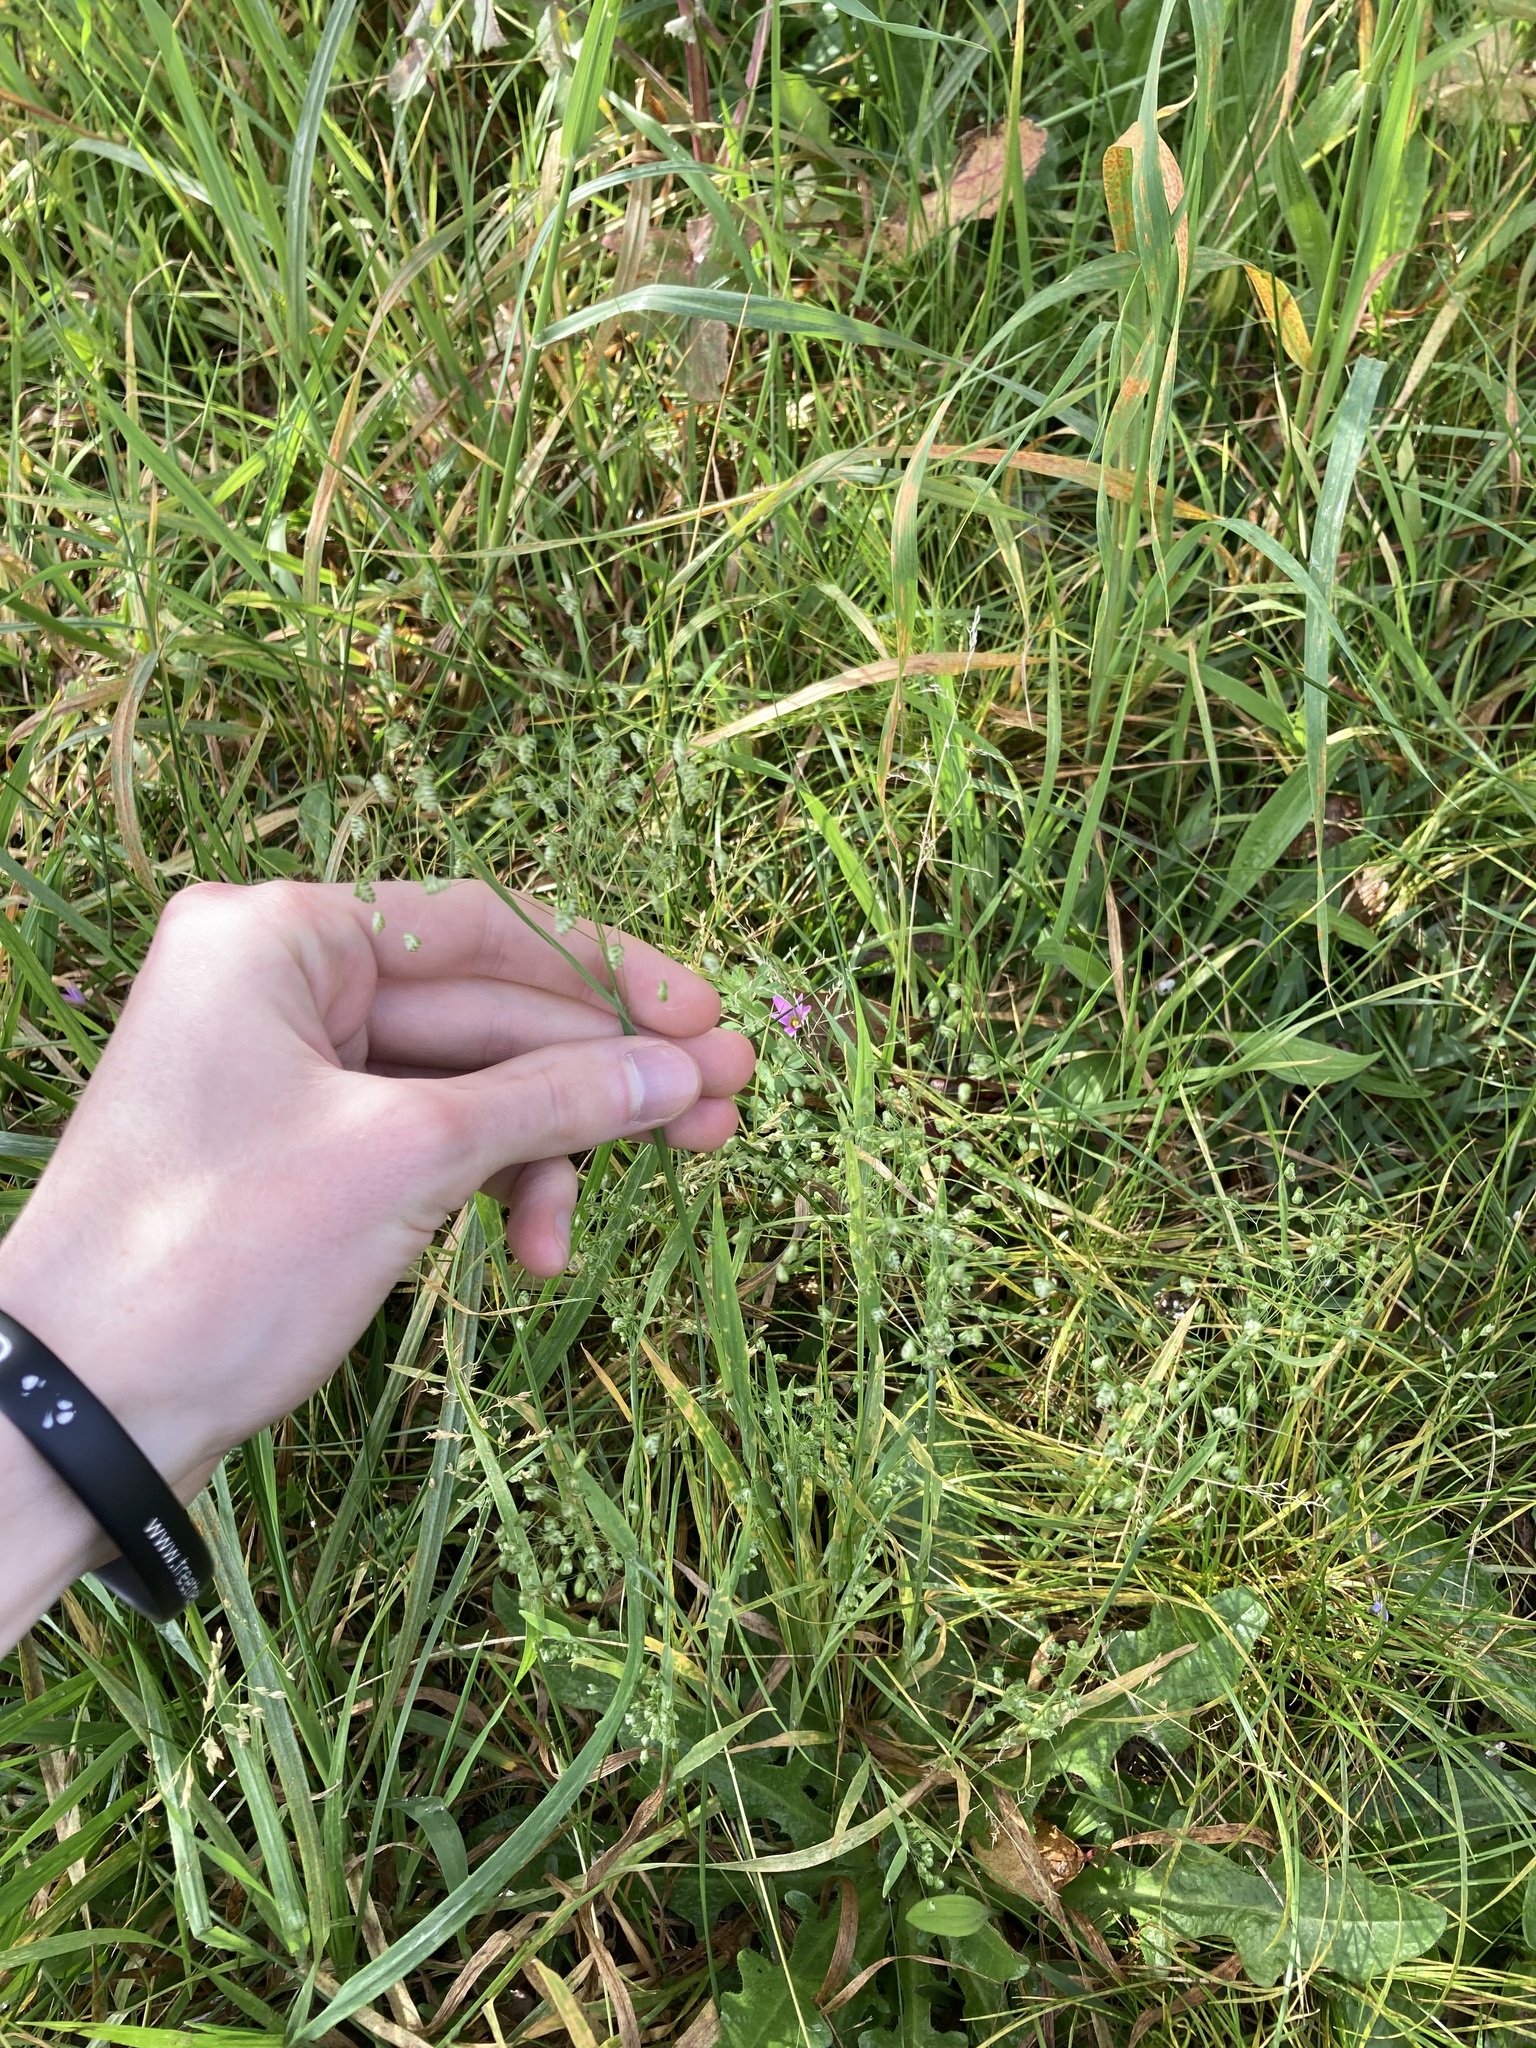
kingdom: Plantae
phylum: Tracheophyta
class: Liliopsida
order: Poales
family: Poaceae
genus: Briza
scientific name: Briza minor
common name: Lesser quaking-grass
